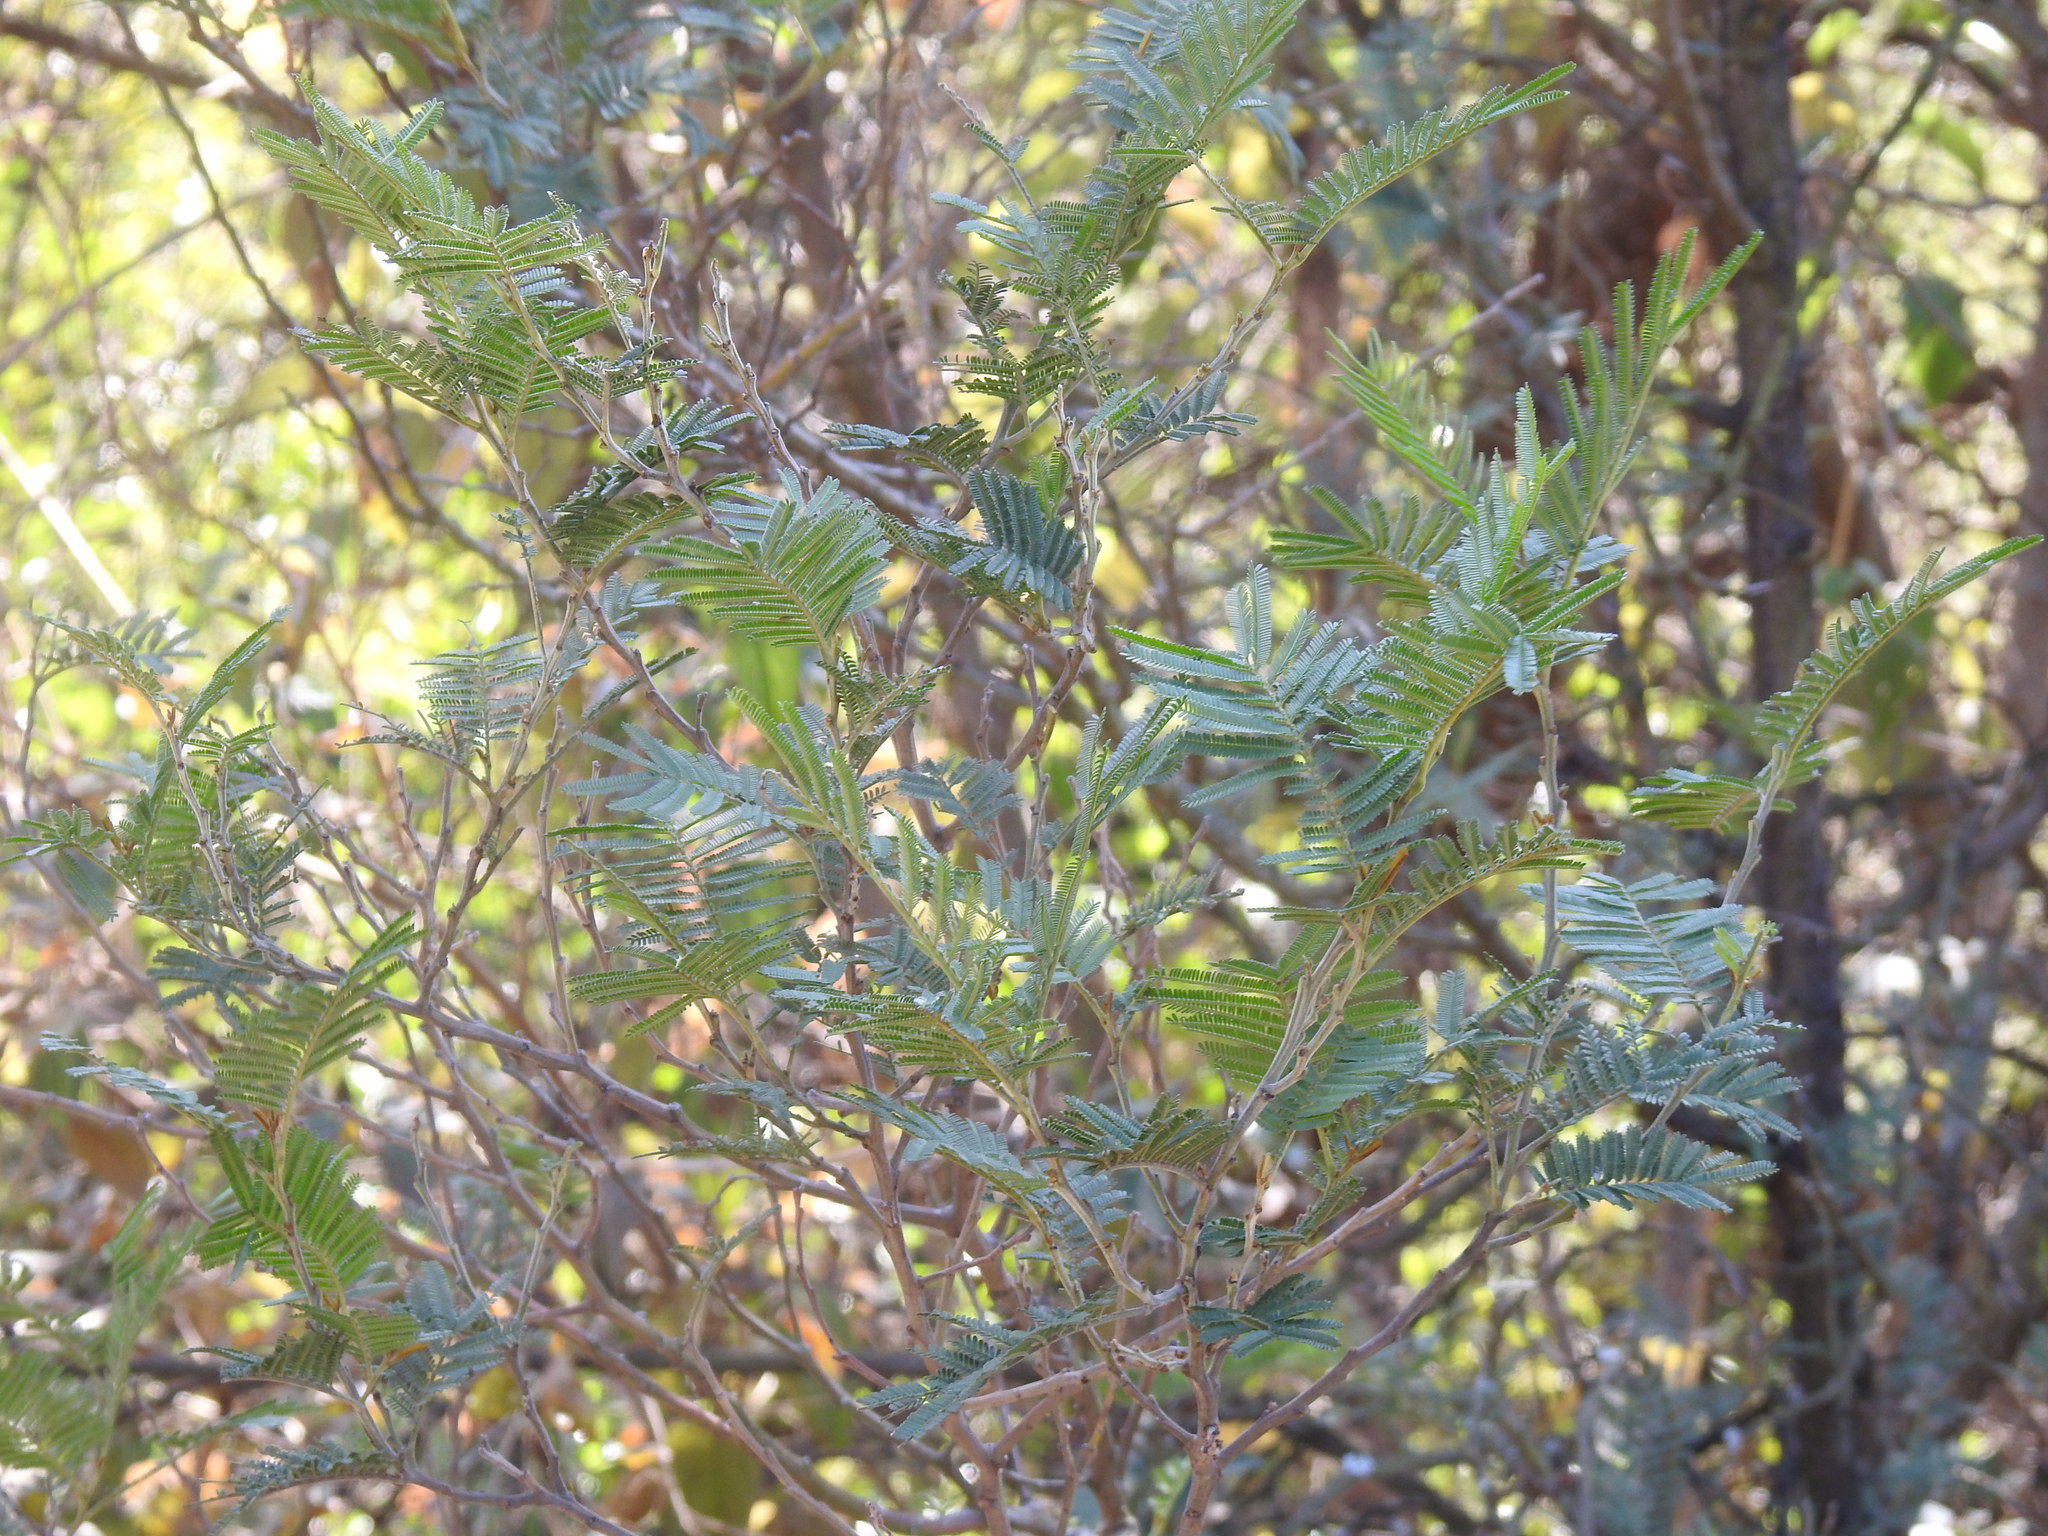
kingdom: Plantae
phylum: Tracheophyta
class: Magnoliopsida
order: Fabales
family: Fabaceae
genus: Acacia
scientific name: Acacia mearnsii
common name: Black wattle
